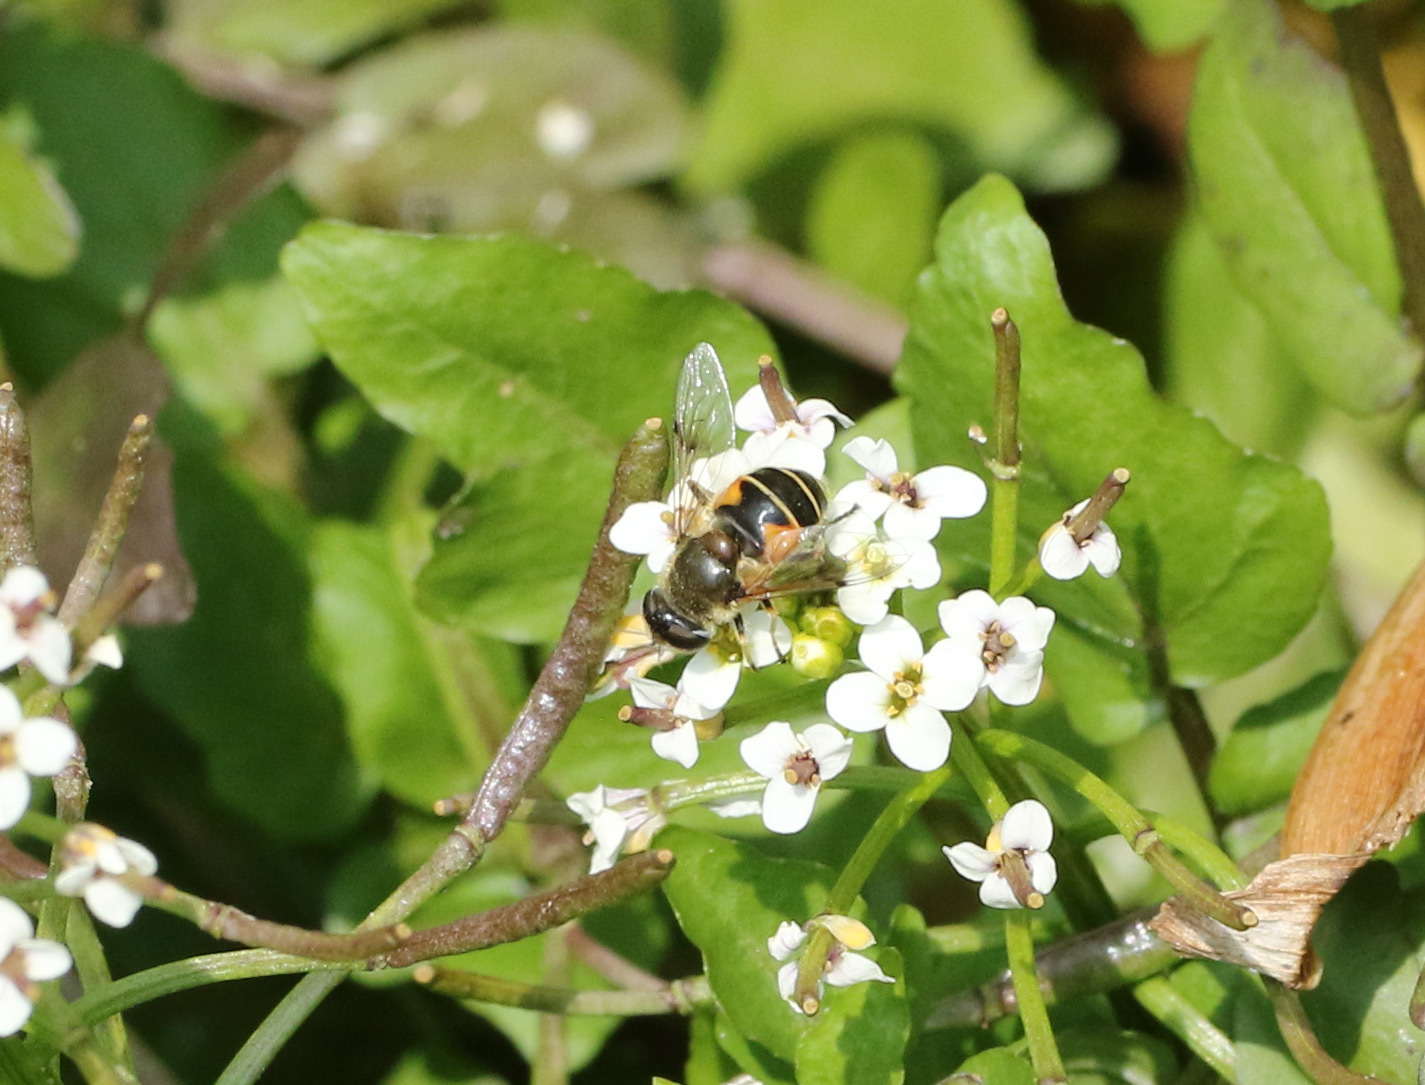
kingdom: Animalia
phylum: Arthropoda
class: Insecta
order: Diptera
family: Syrphidae
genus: Cheilosia
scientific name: Cheilosia morio
